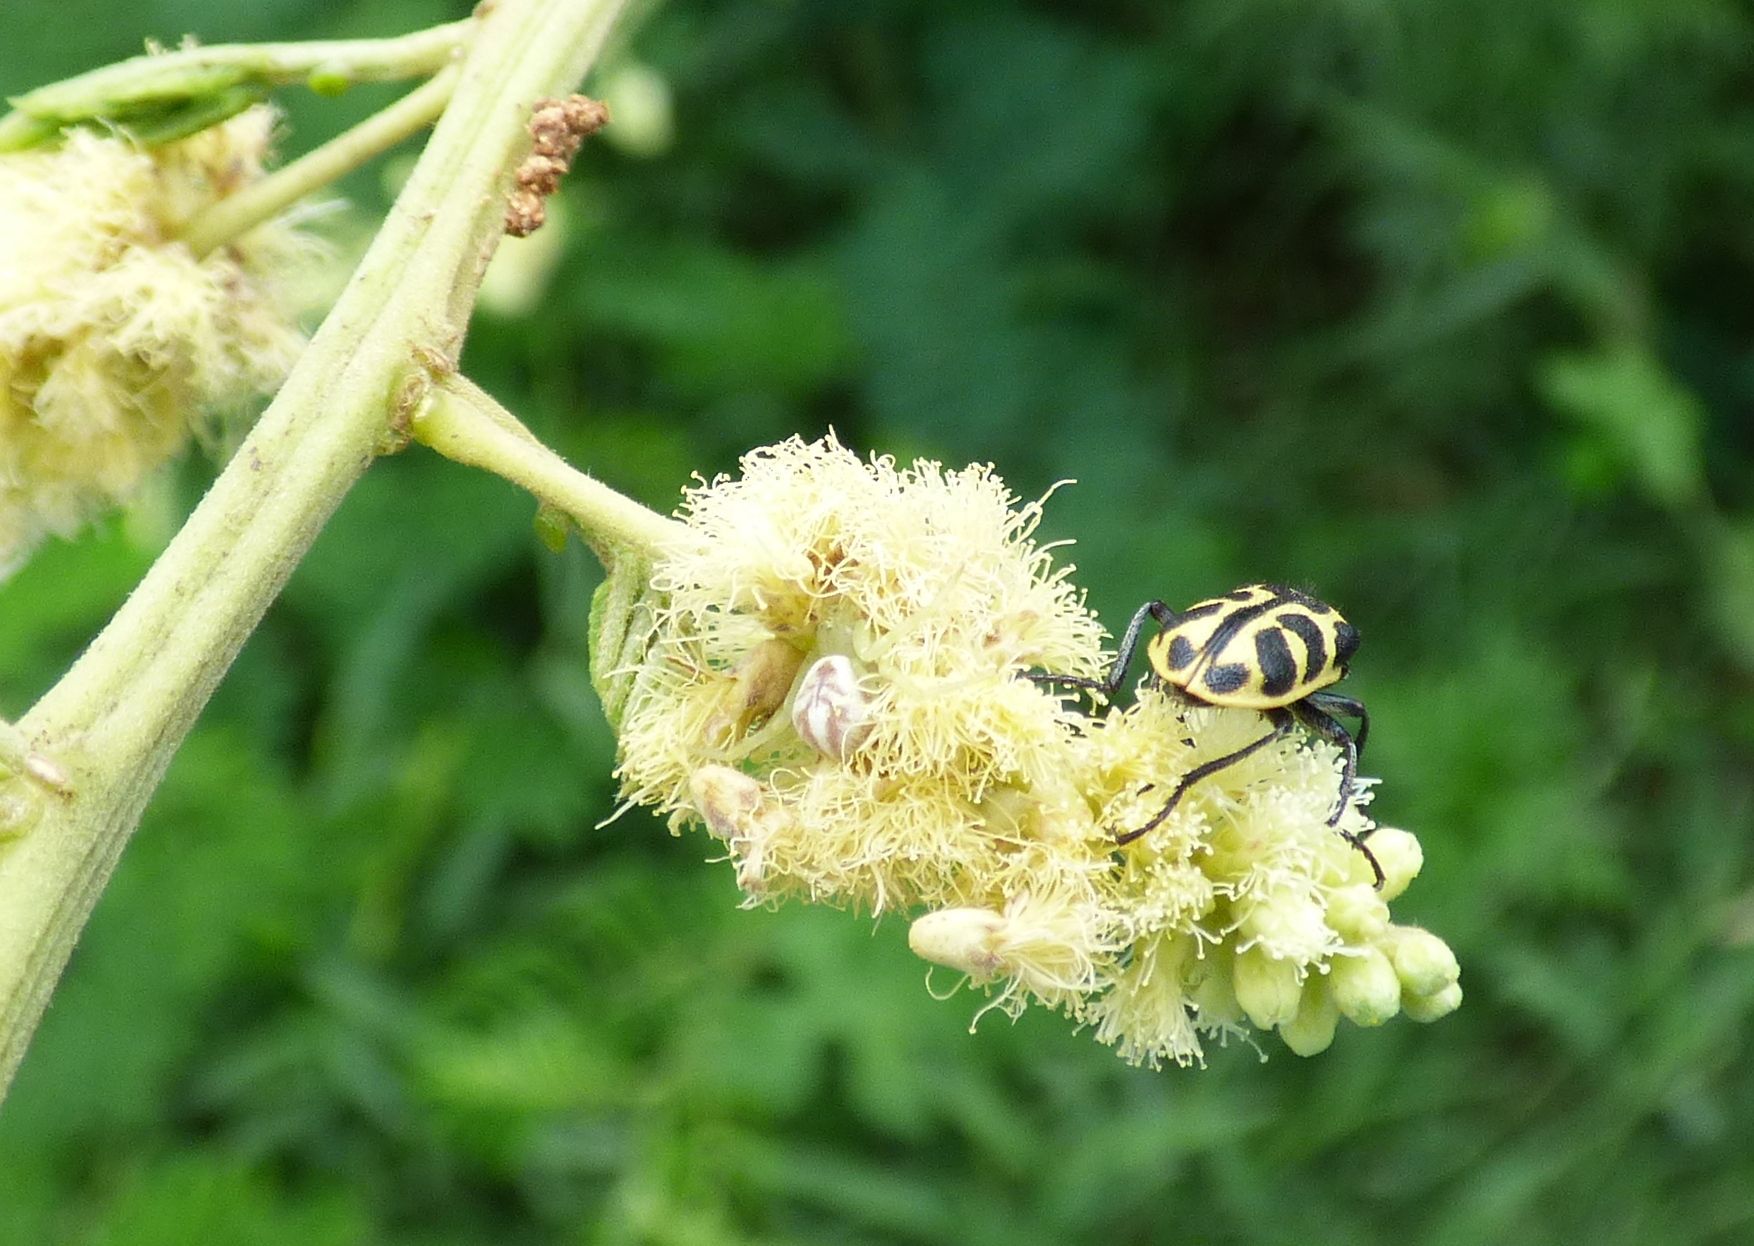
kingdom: Animalia
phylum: Arthropoda
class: Arachnida
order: Araneae
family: Thomisidae
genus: Misumenops
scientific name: Misumenops
